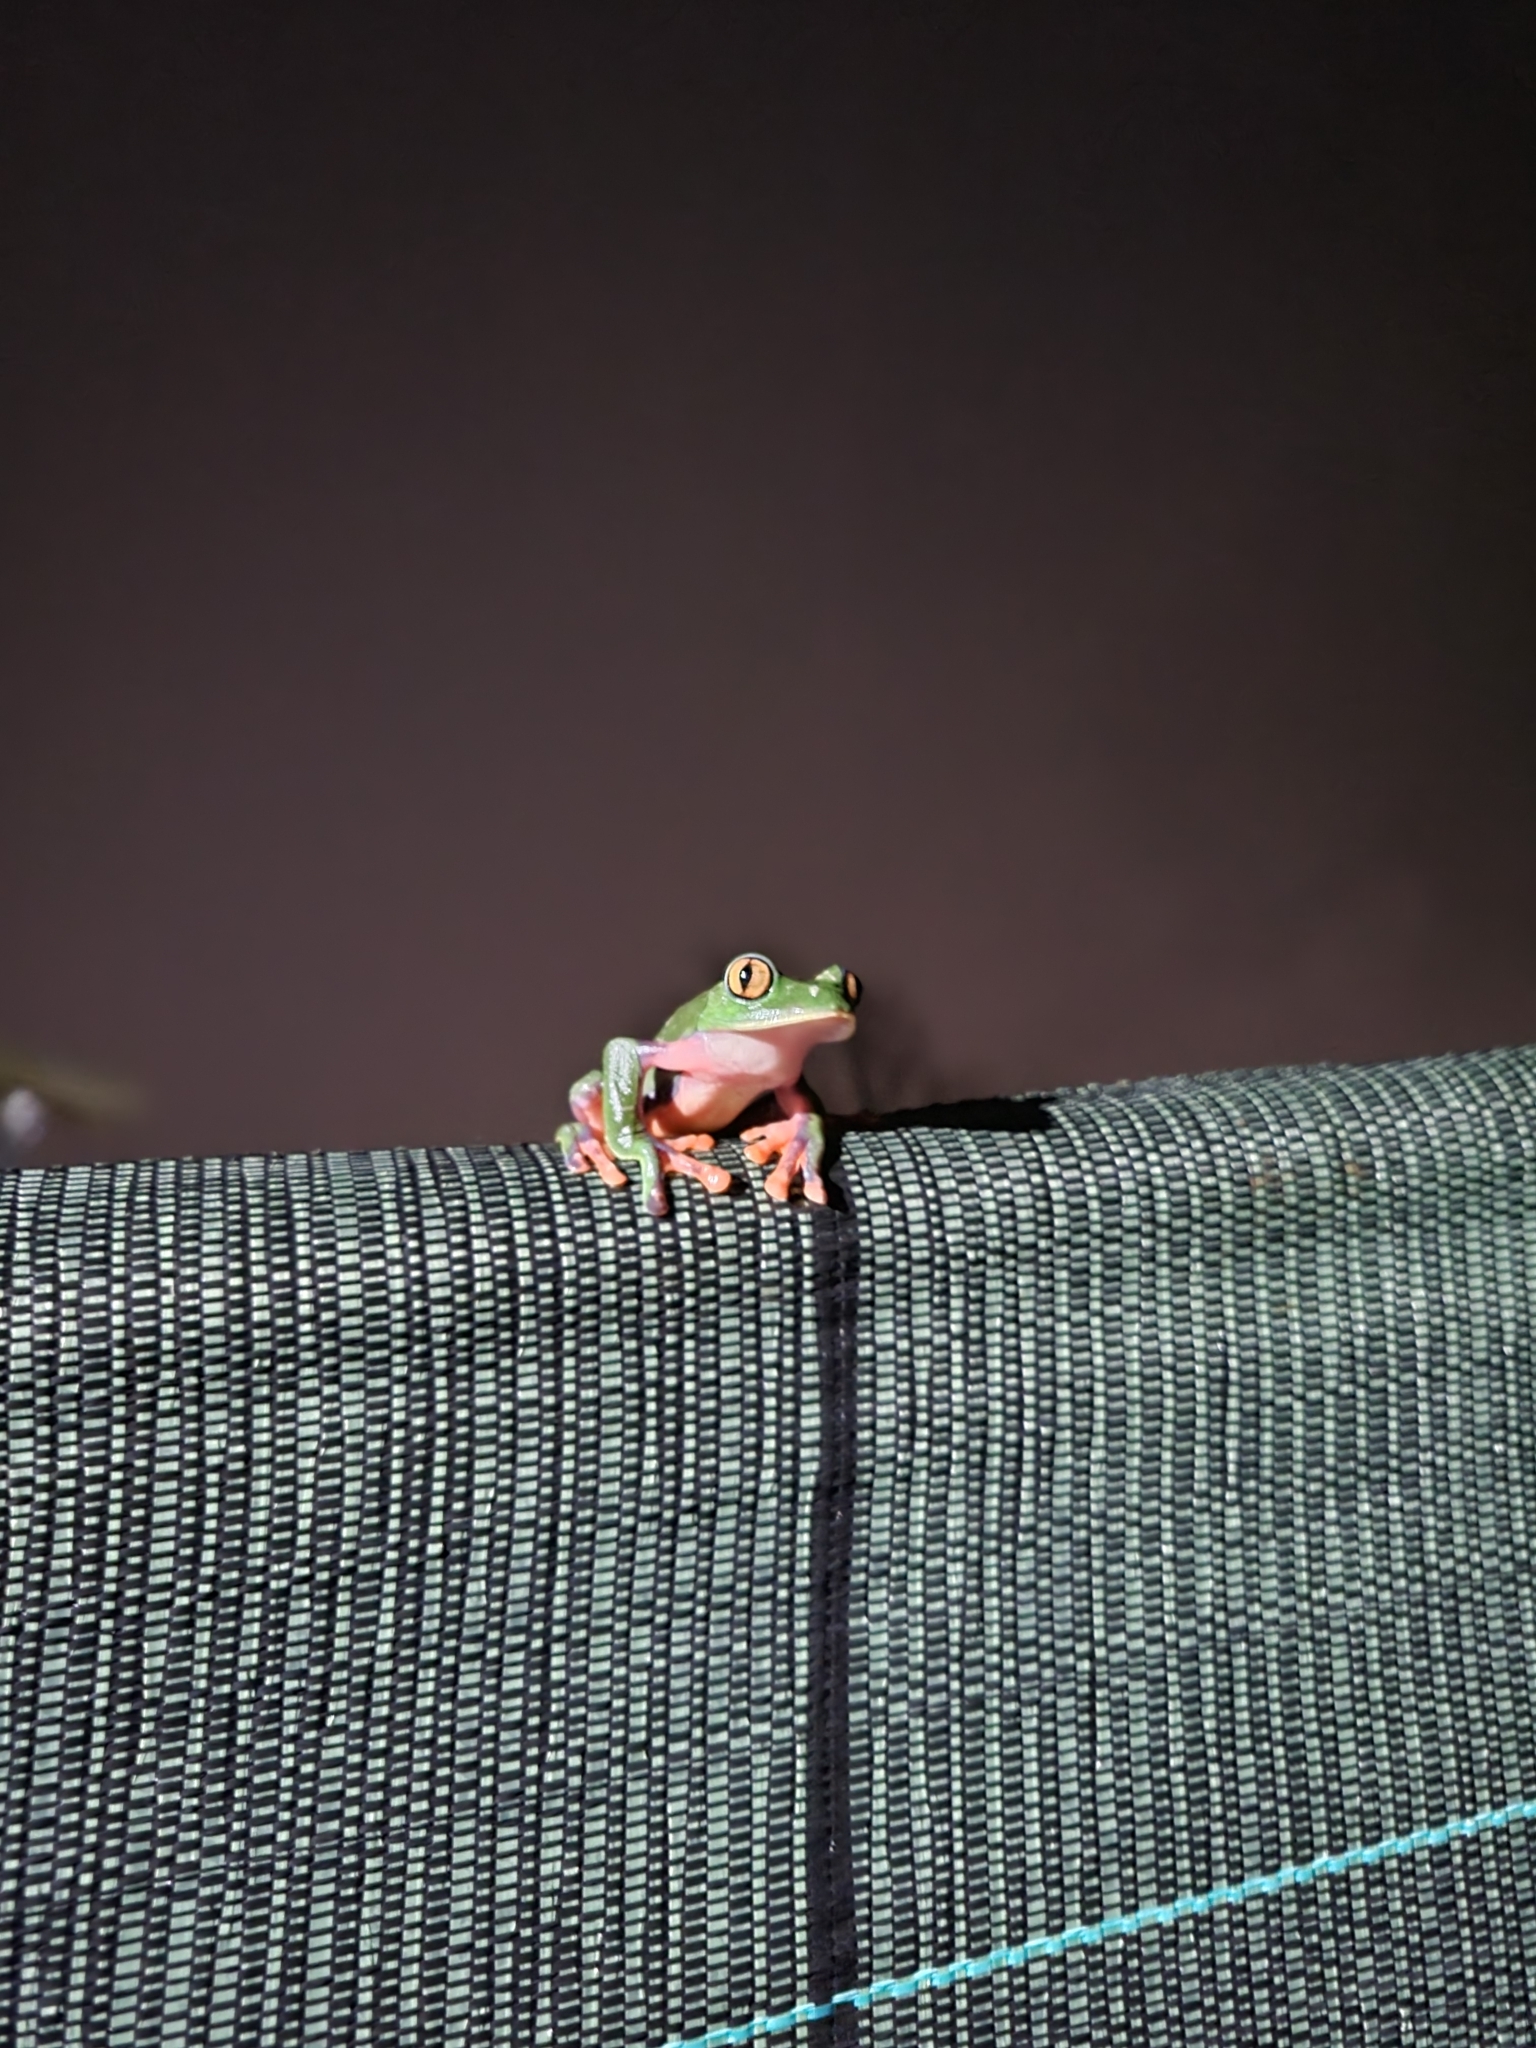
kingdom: Animalia
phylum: Chordata
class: Amphibia
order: Anura
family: Phyllomedusidae
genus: Agalychnis
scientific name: Agalychnis annae
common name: Blue-sided treefrog
